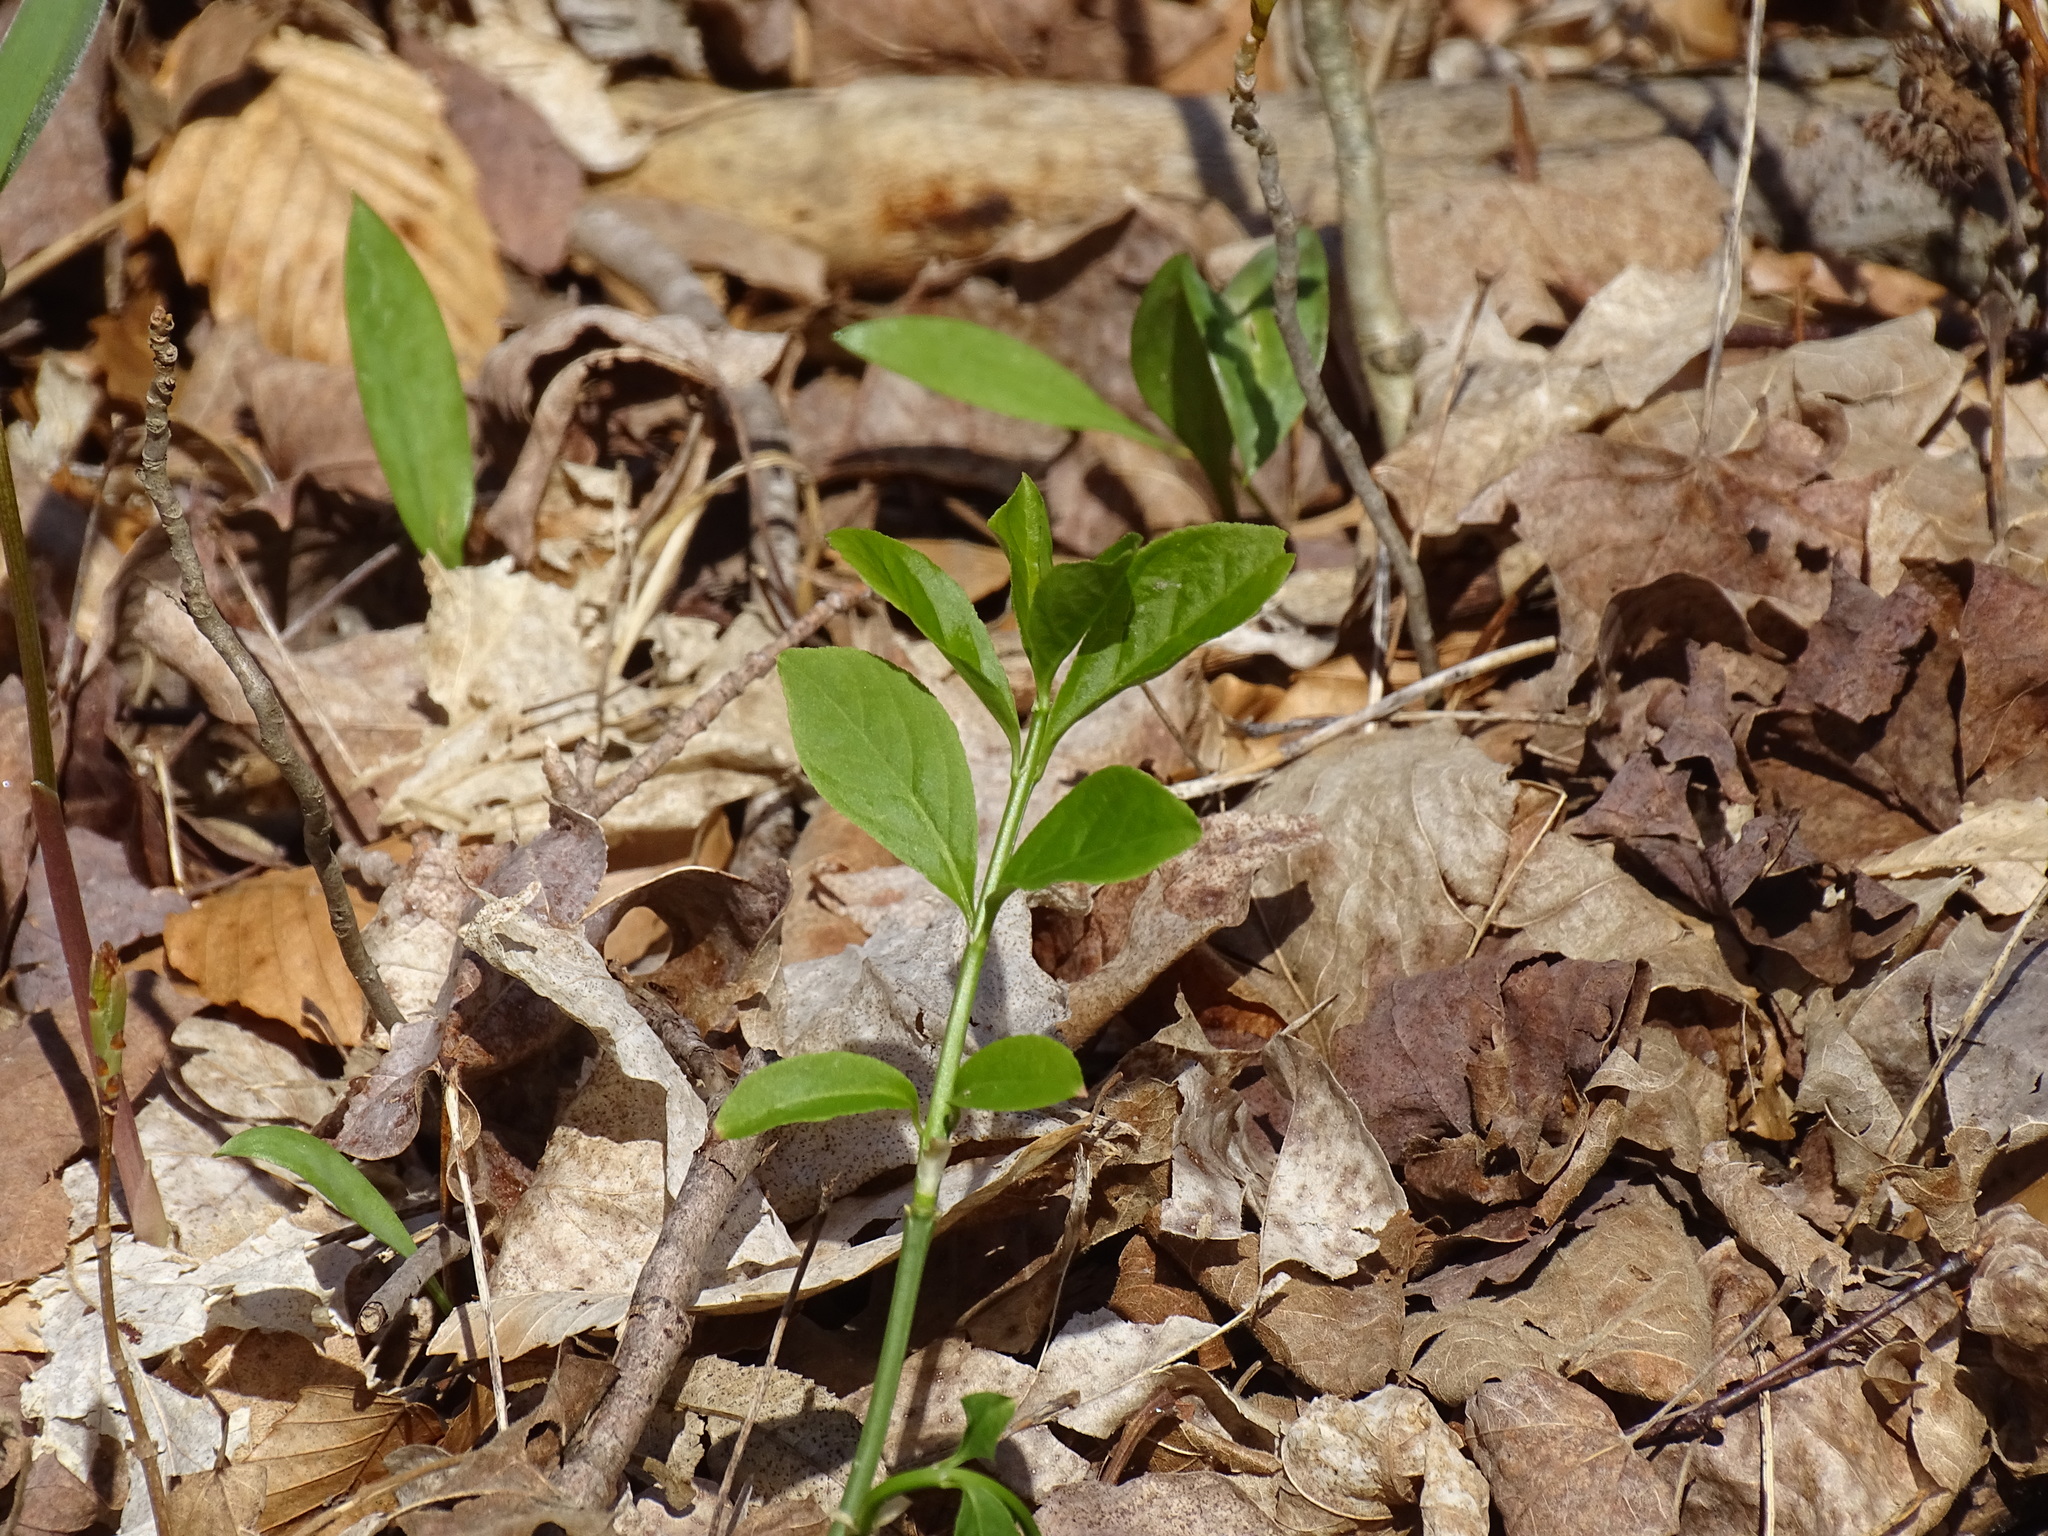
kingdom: Plantae
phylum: Tracheophyta
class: Magnoliopsida
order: Celastrales
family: Celastraceae
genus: Euonymus
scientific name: Euonymus obovatus
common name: Running strawberry-bush
